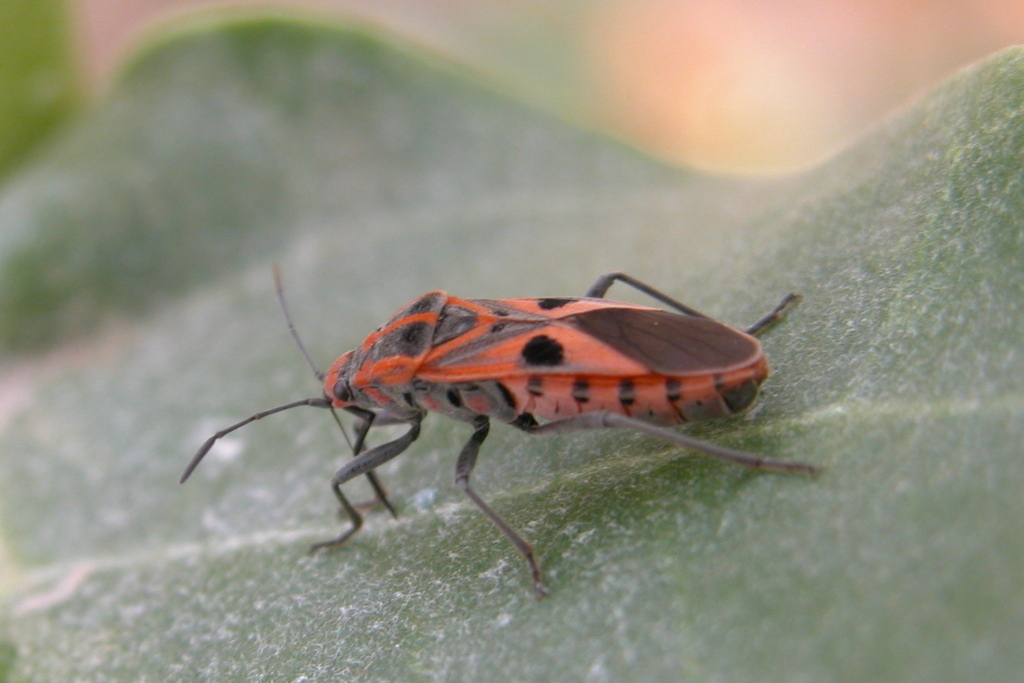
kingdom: Animalia
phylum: Arthropoda
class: Insecta
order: Hemiptera
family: Lygaeidae
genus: Spilostethus
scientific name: Spilostethus hospes
